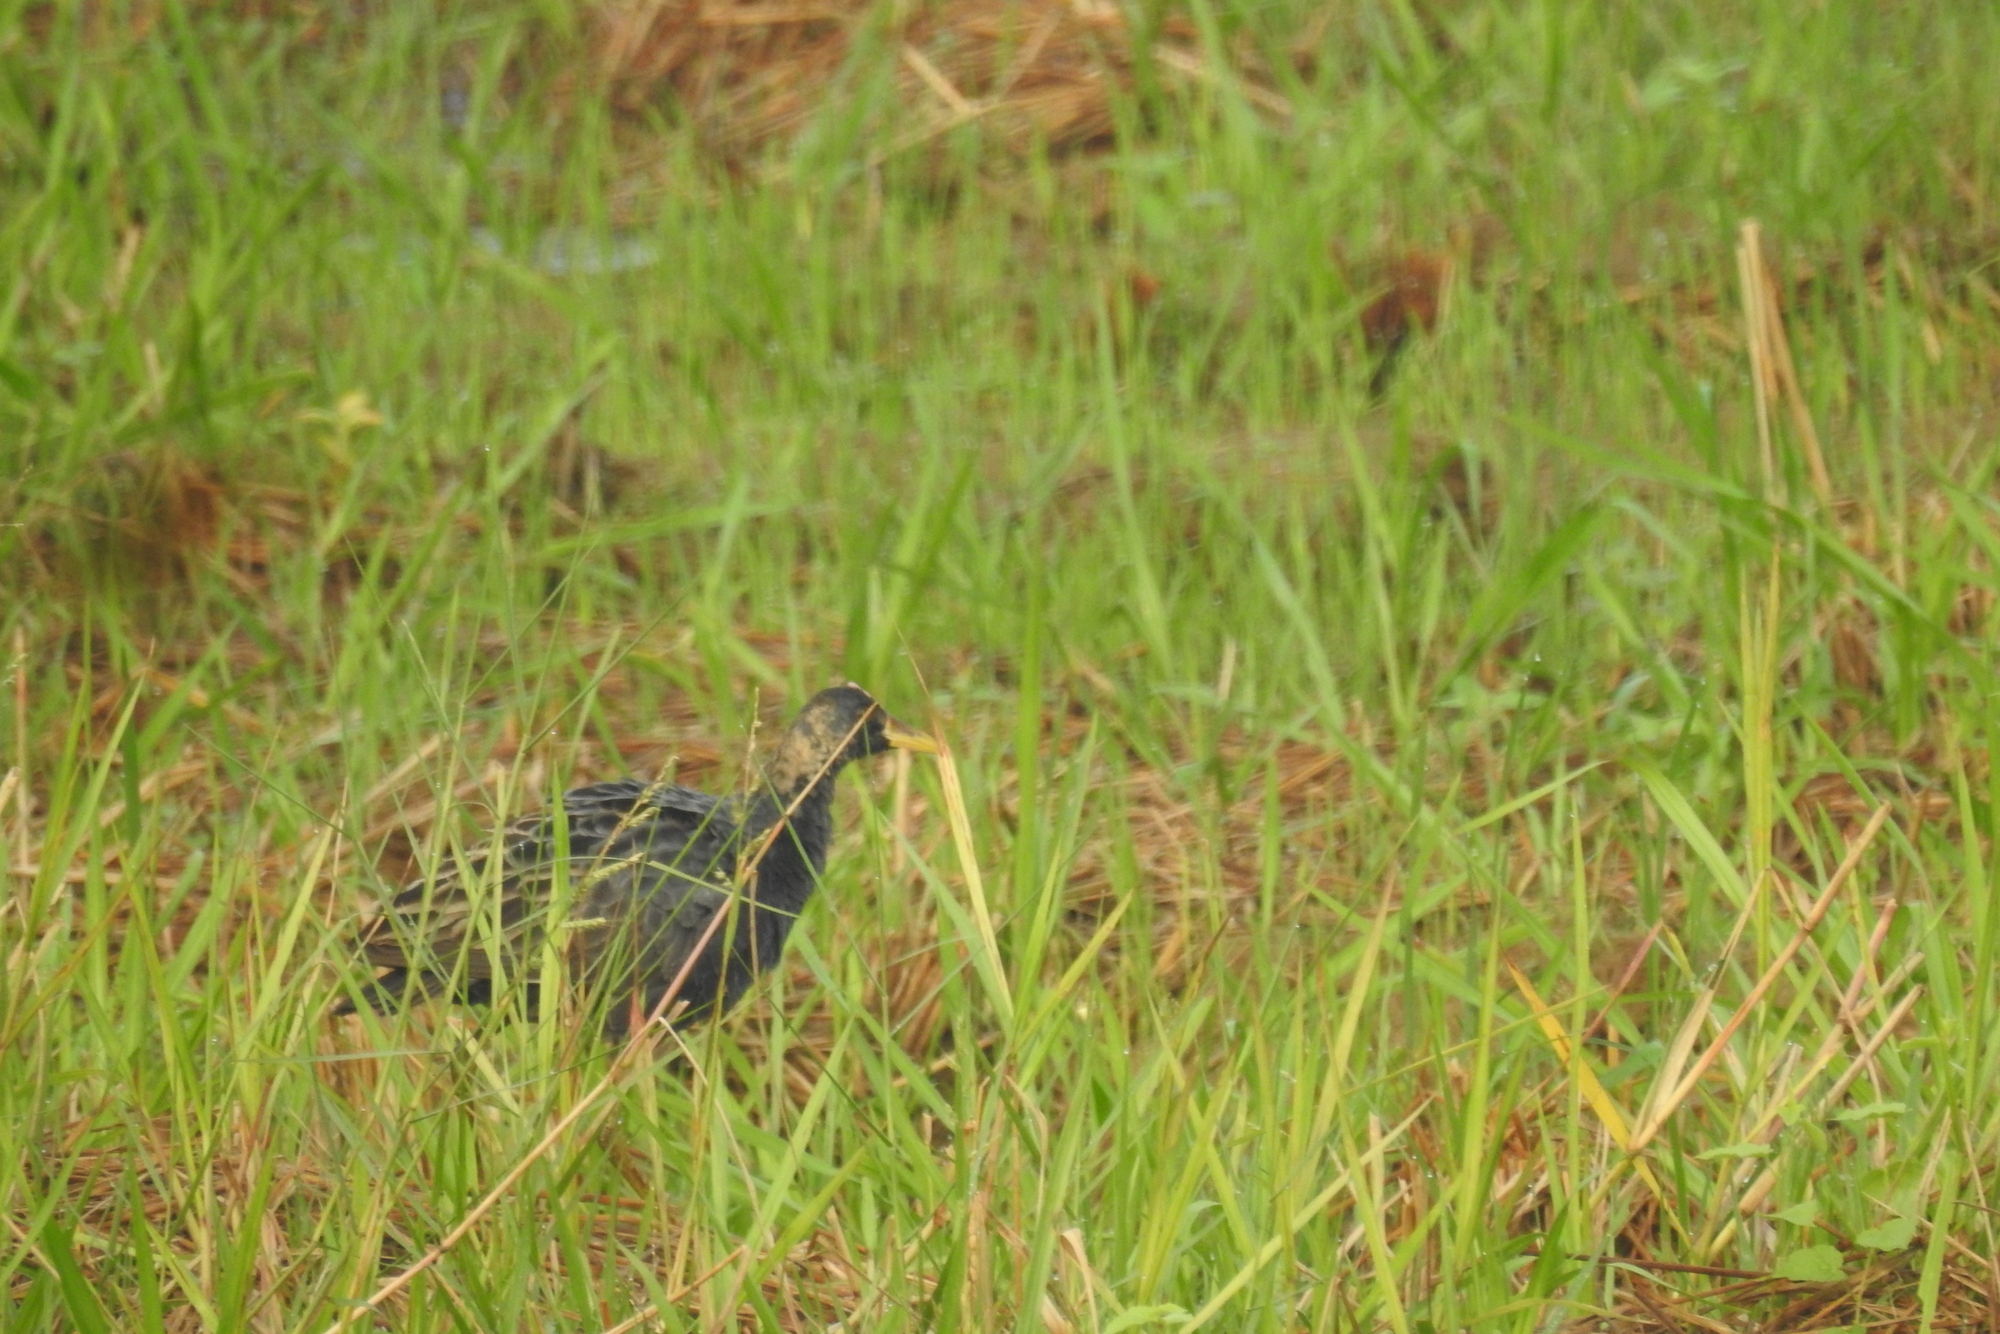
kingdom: Animalia
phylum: Chordata
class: Aves
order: Gruiformes
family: Rallidae
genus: Gallicrex
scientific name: Gallicrex cinerea
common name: Watercock
